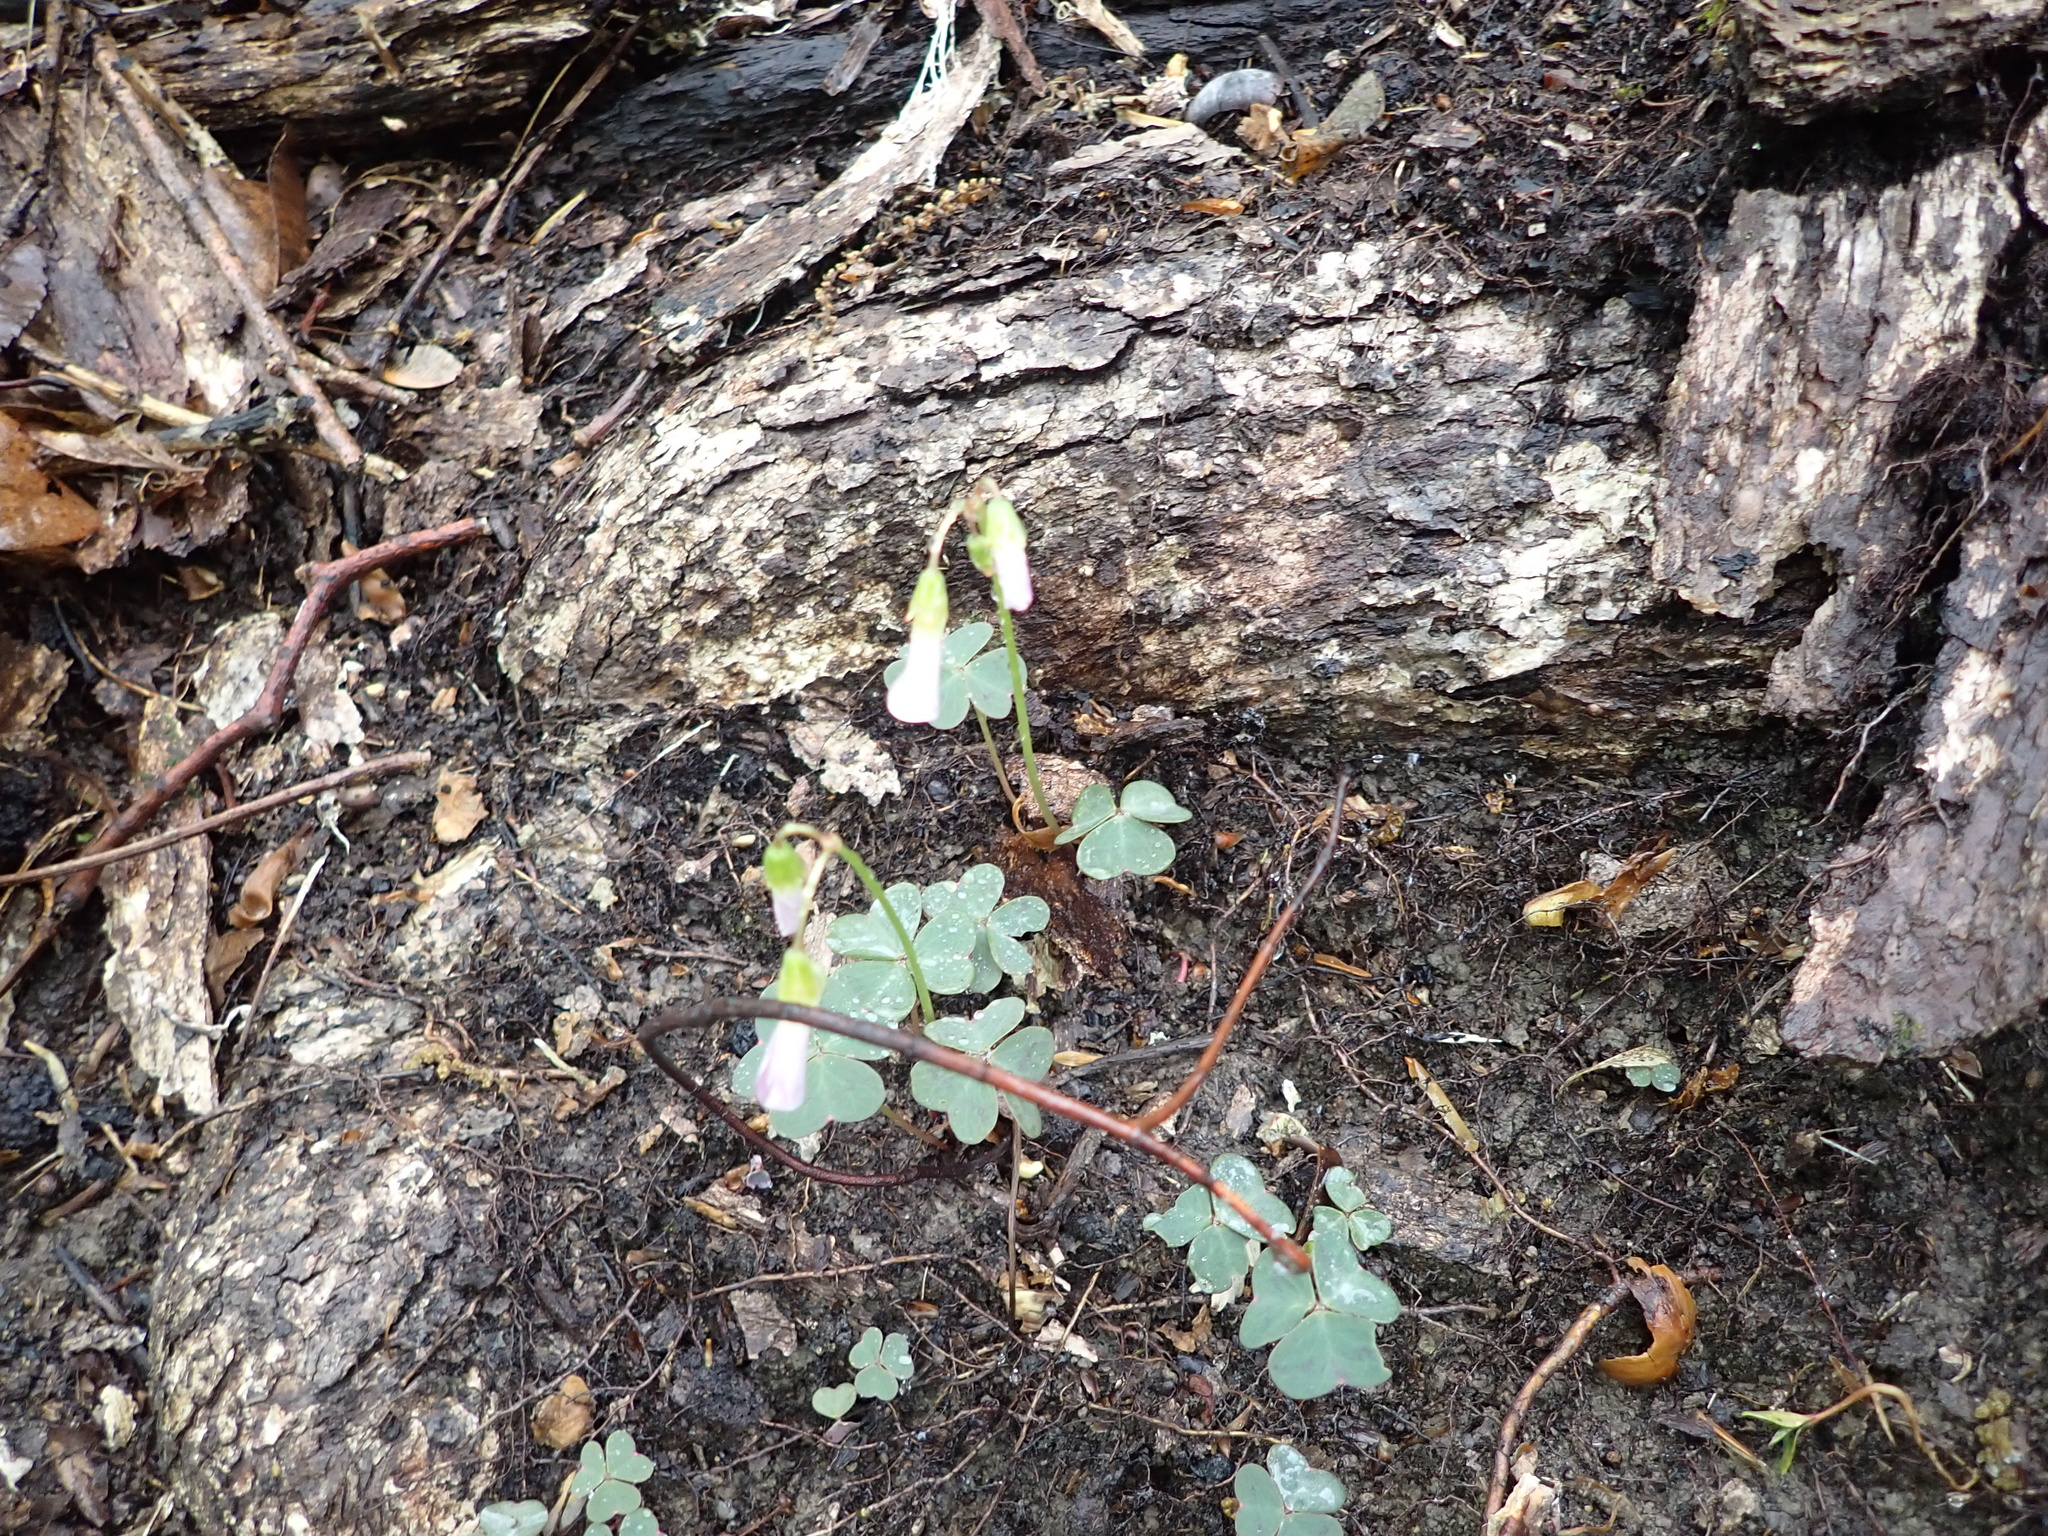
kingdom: Plantae
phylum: Tracheophyta
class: Magnoliopsida
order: Oxalidales
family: Oxalidaceae
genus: Oxalis
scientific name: Oxalis violacea
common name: Violet wood-sorrel
